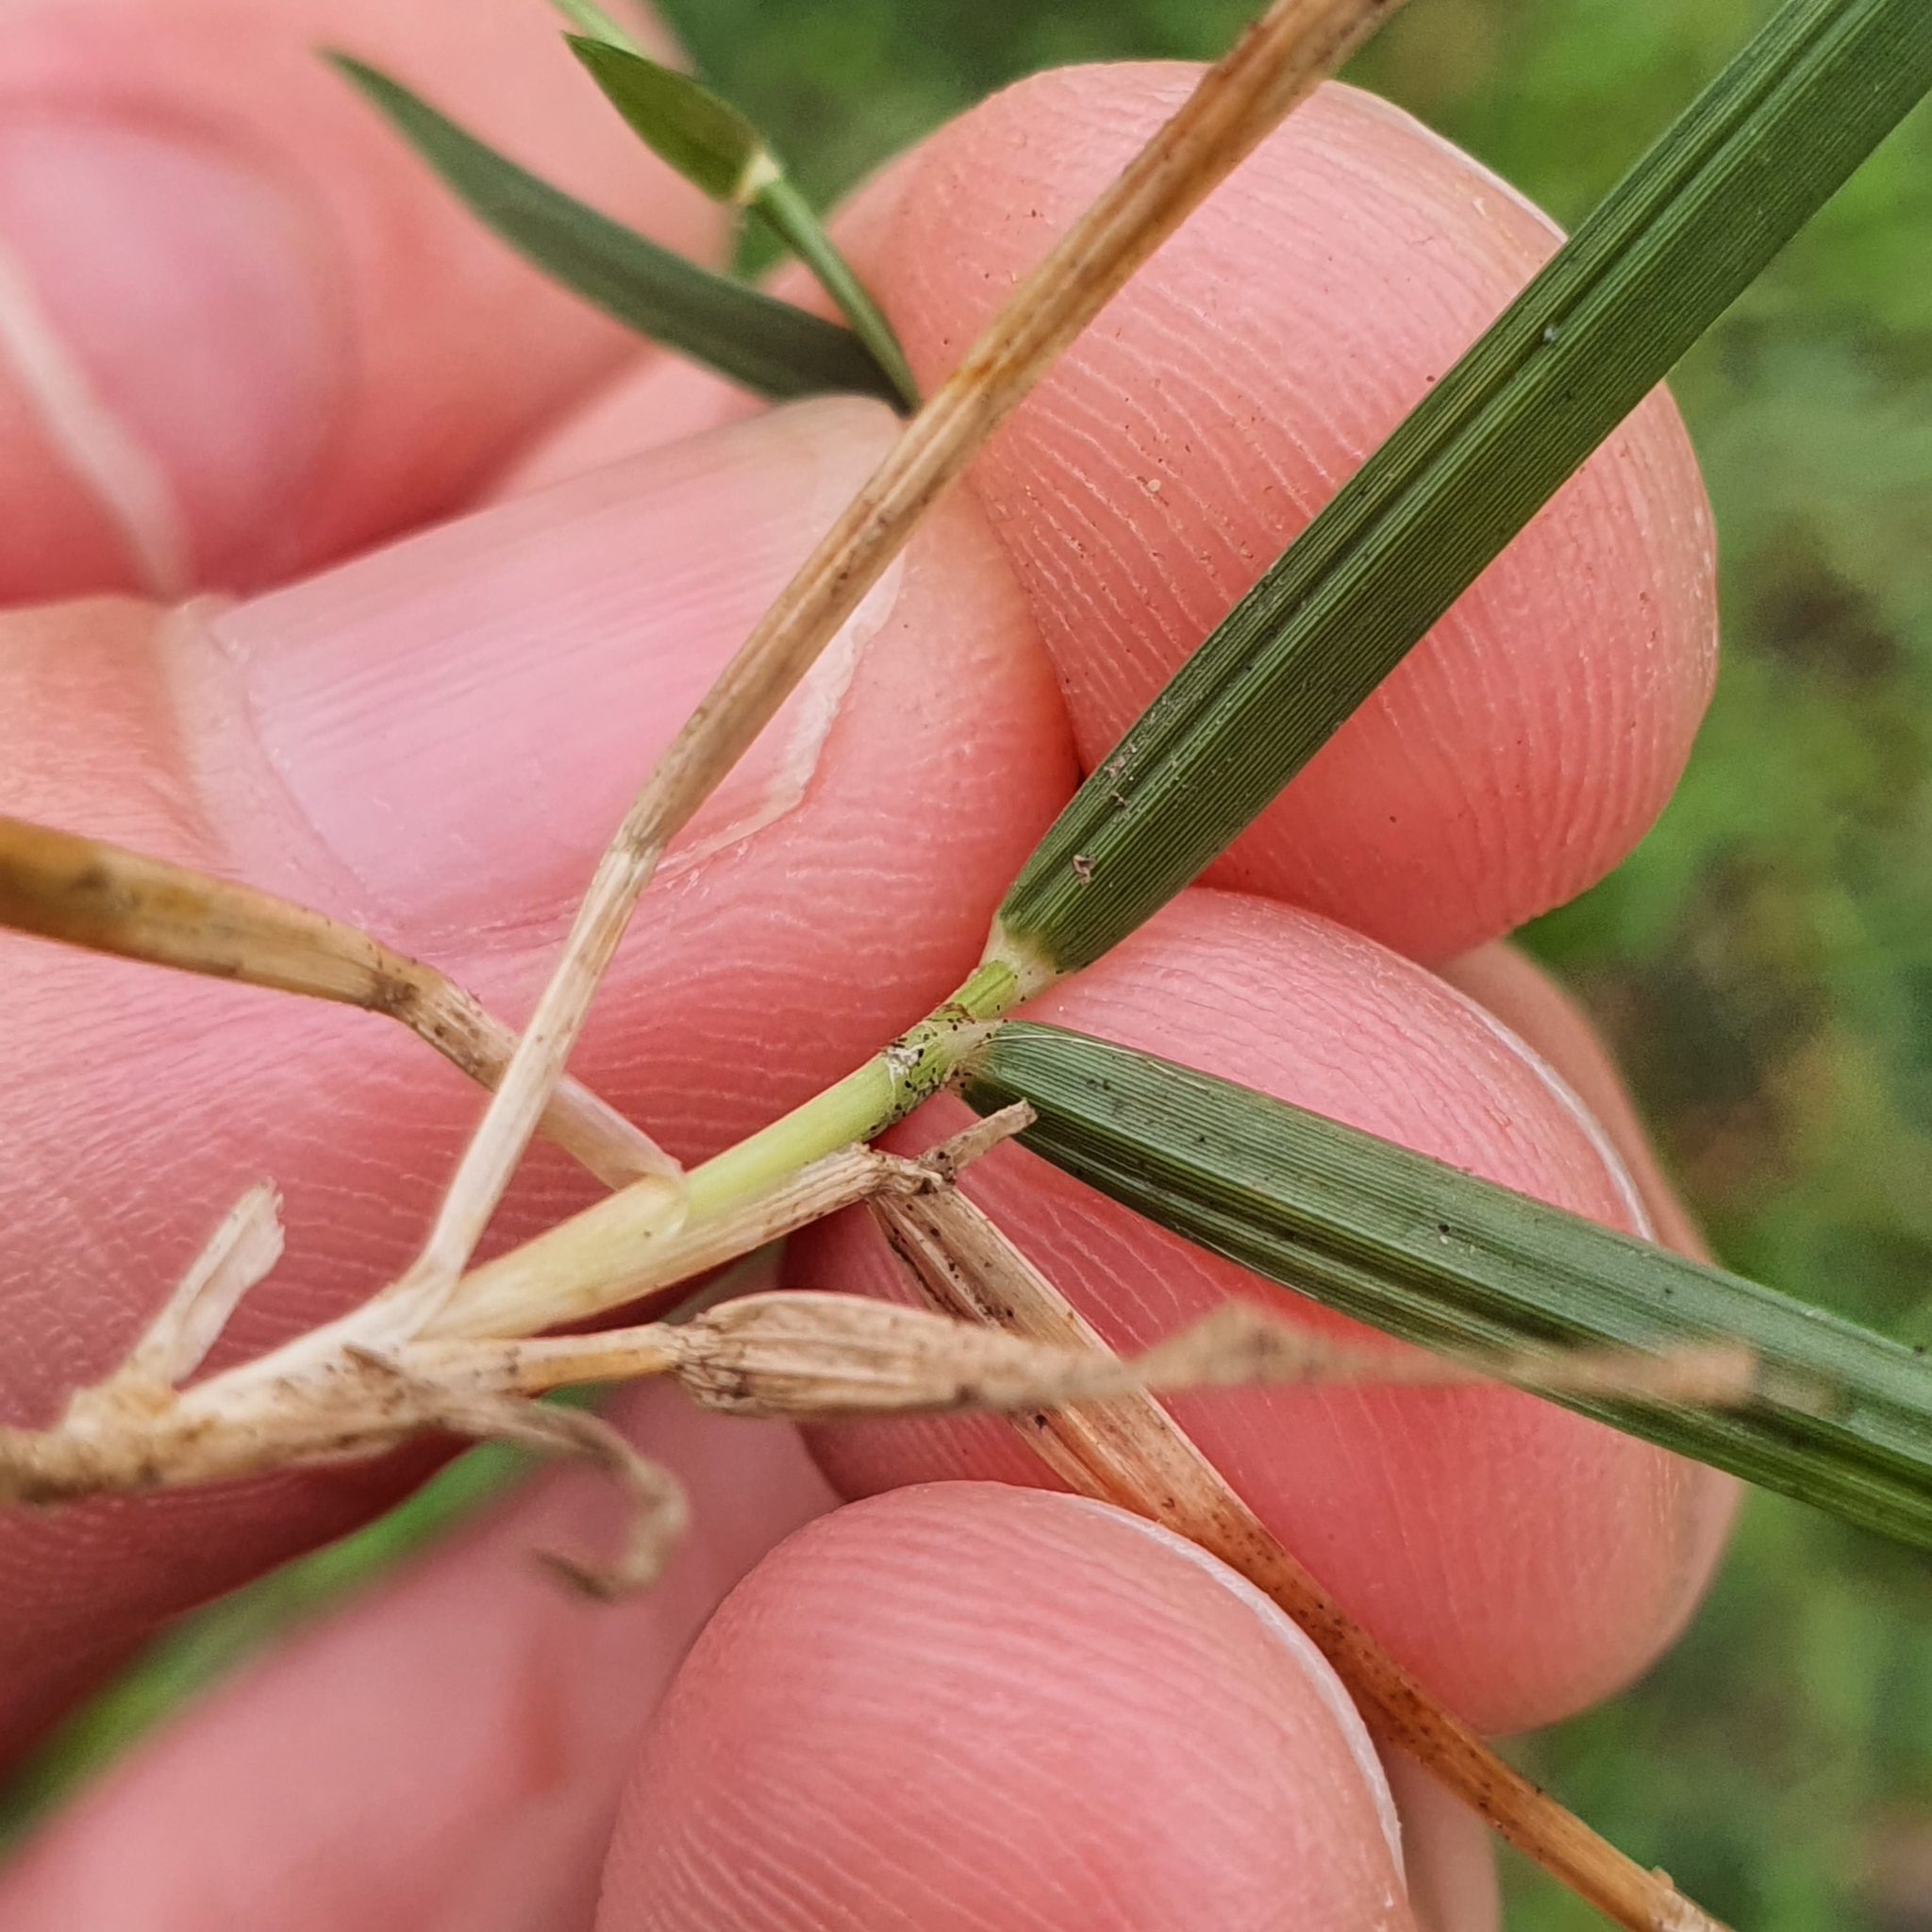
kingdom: Plantae
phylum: Tracheophyta
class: Liliopsida
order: Poales
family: Poaceae
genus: Zoysia
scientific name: Zoysia matrella
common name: Manila grass
